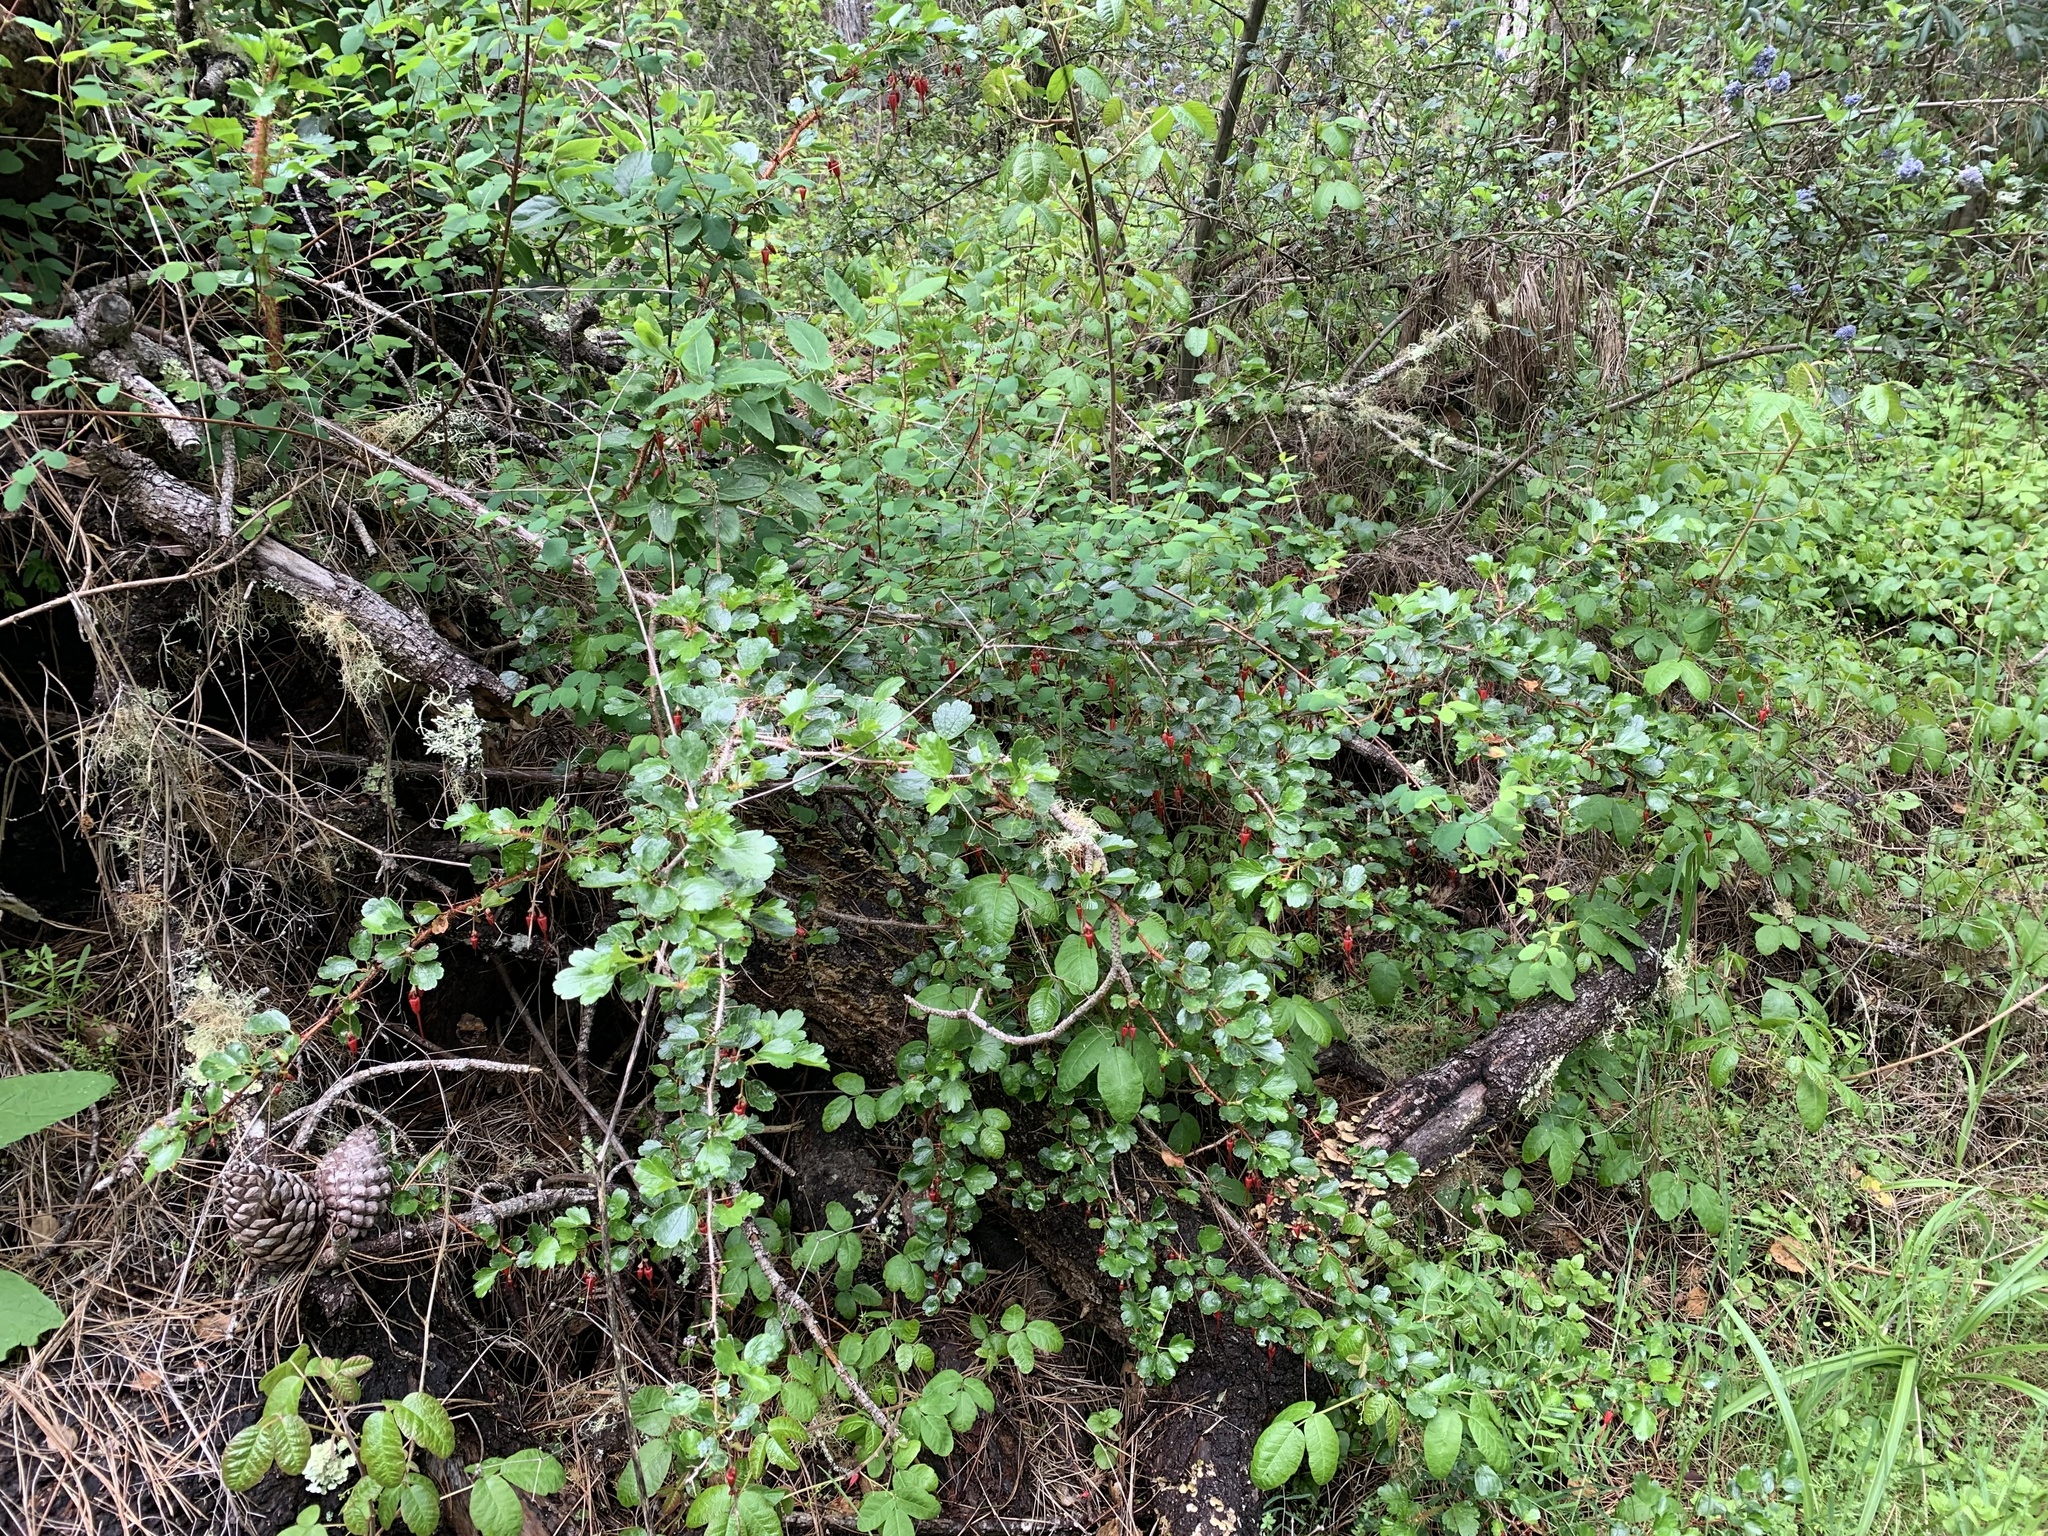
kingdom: Plantae
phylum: Tracheophyta
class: Magnoliopsida
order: Saxifragales
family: Grossulariaceae
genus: Ribes
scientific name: Ribes speciosum
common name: Fuchsia-flower gooseberry
